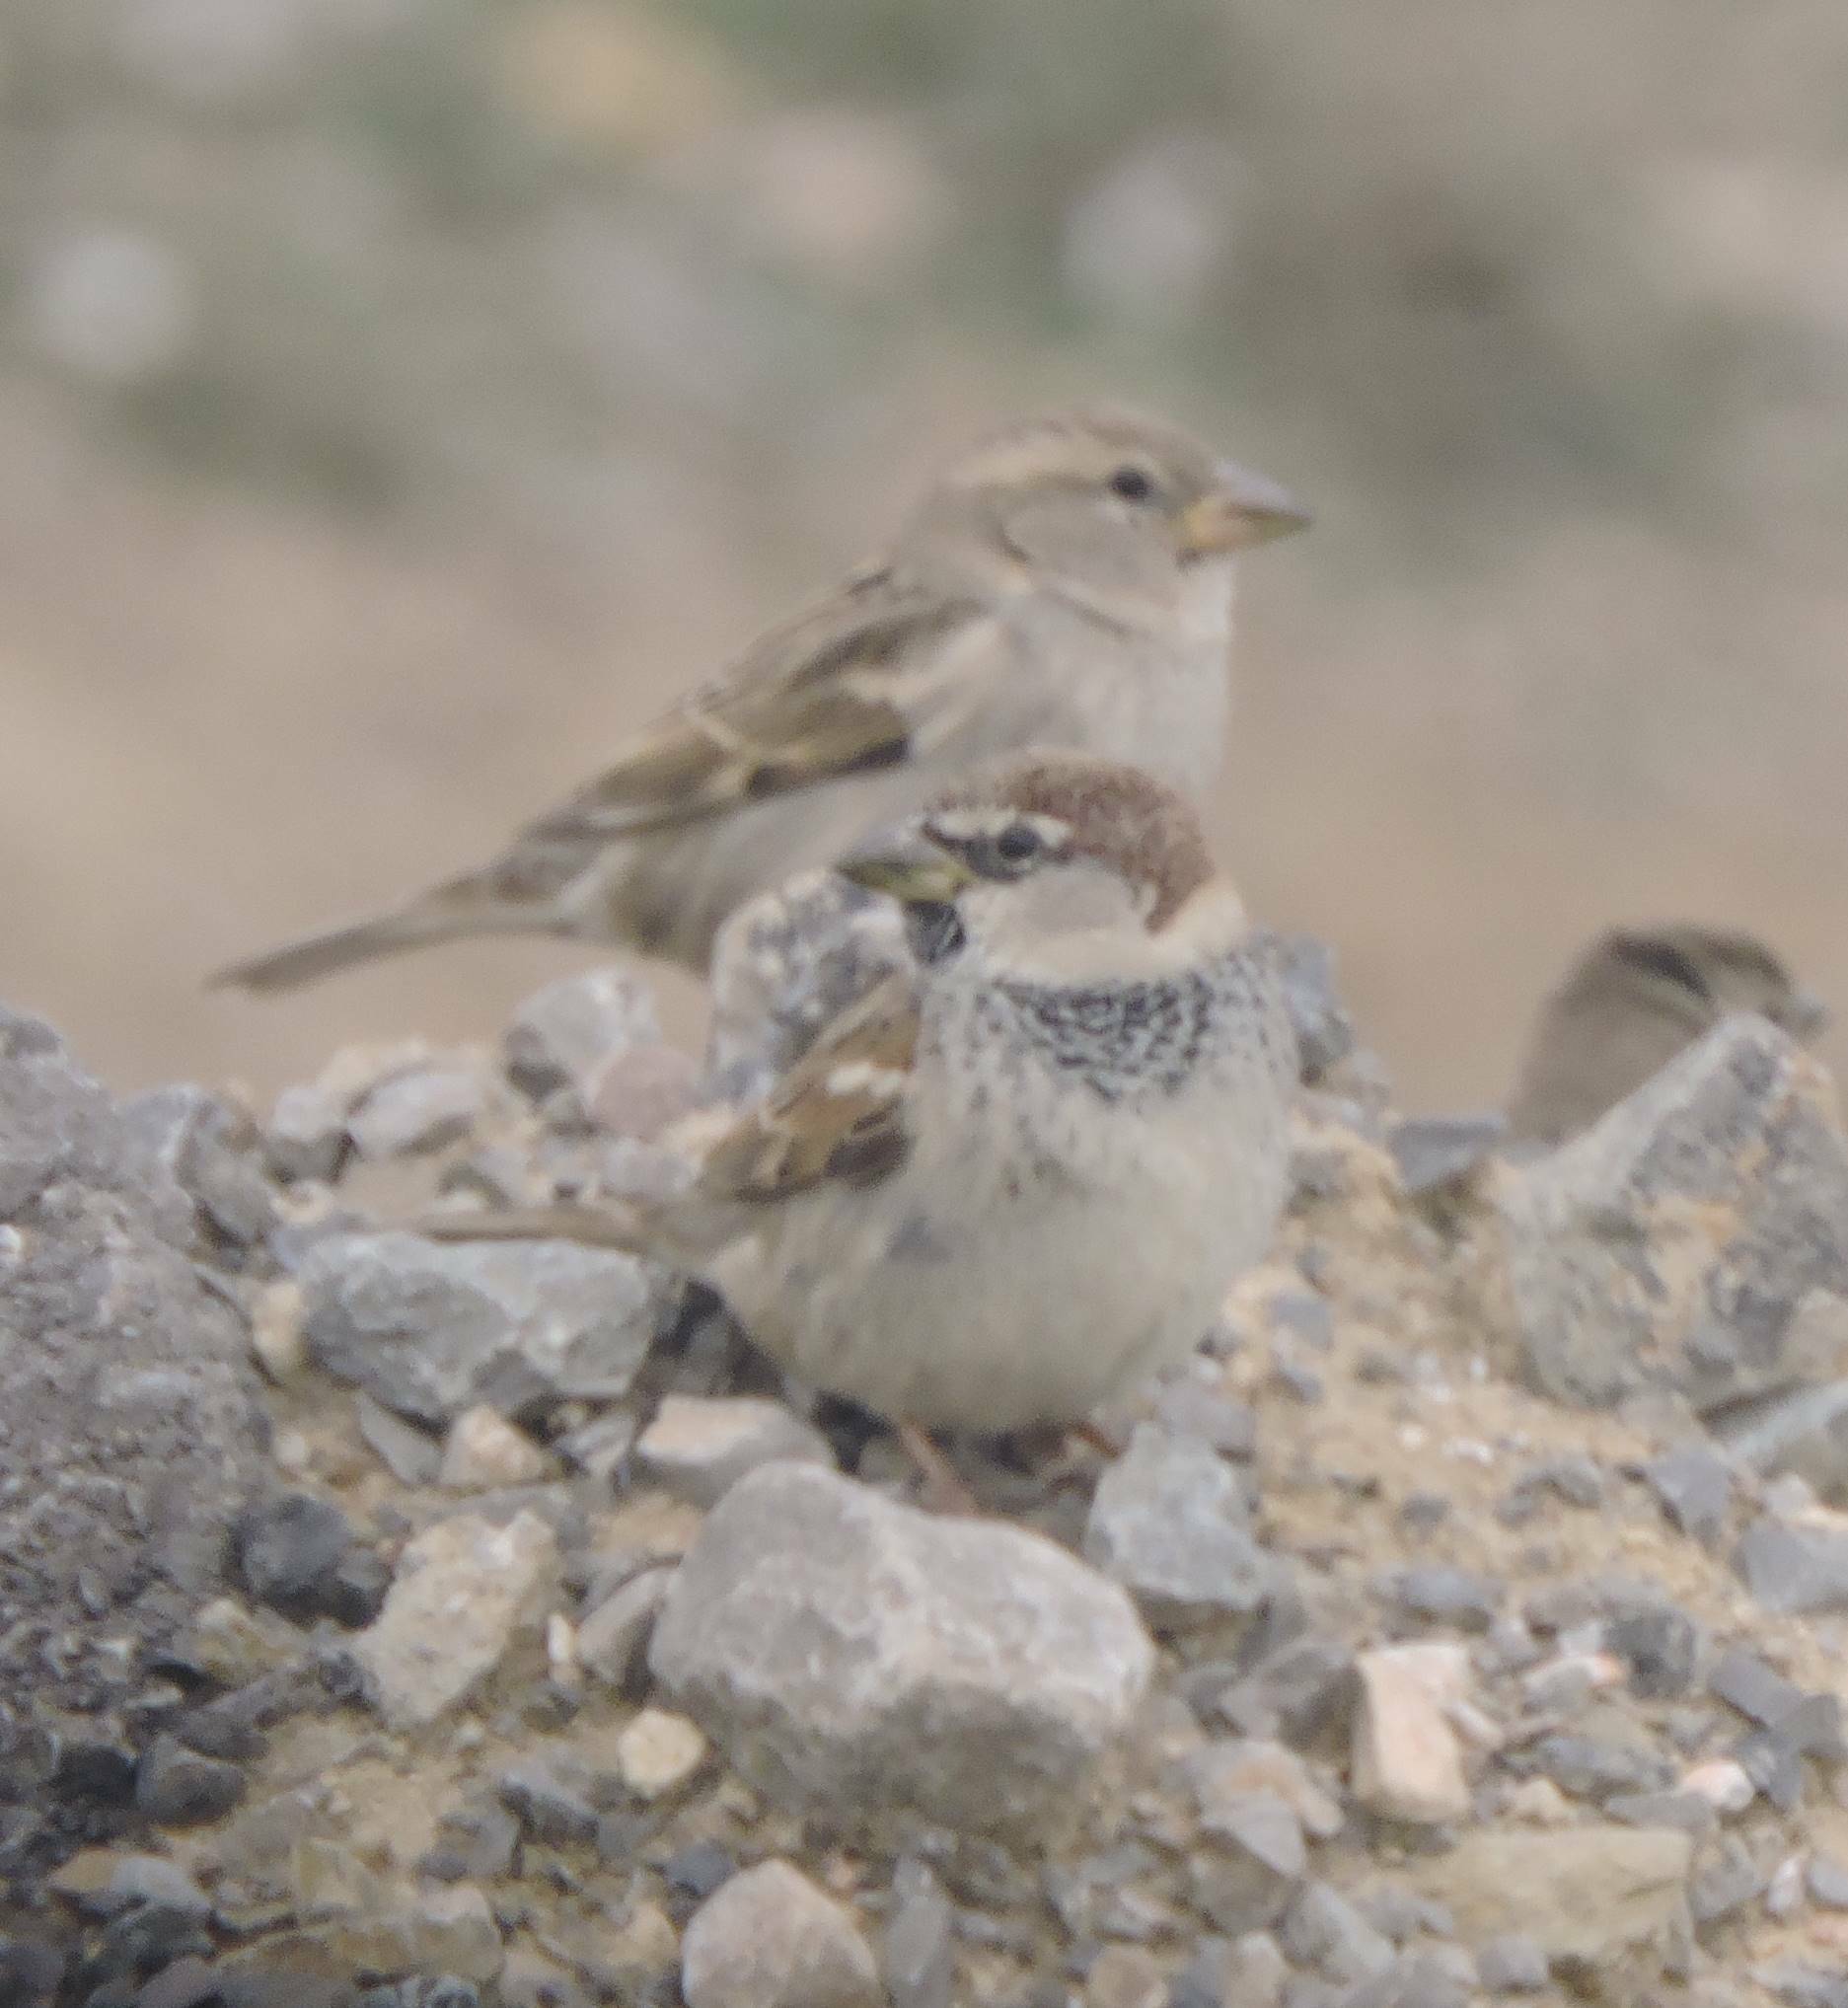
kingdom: Animalia
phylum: Chordata
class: Aves
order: Passeriformes
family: Passeridae
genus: Passer
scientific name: Passer hispaniolensis
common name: Spanish sparrow
